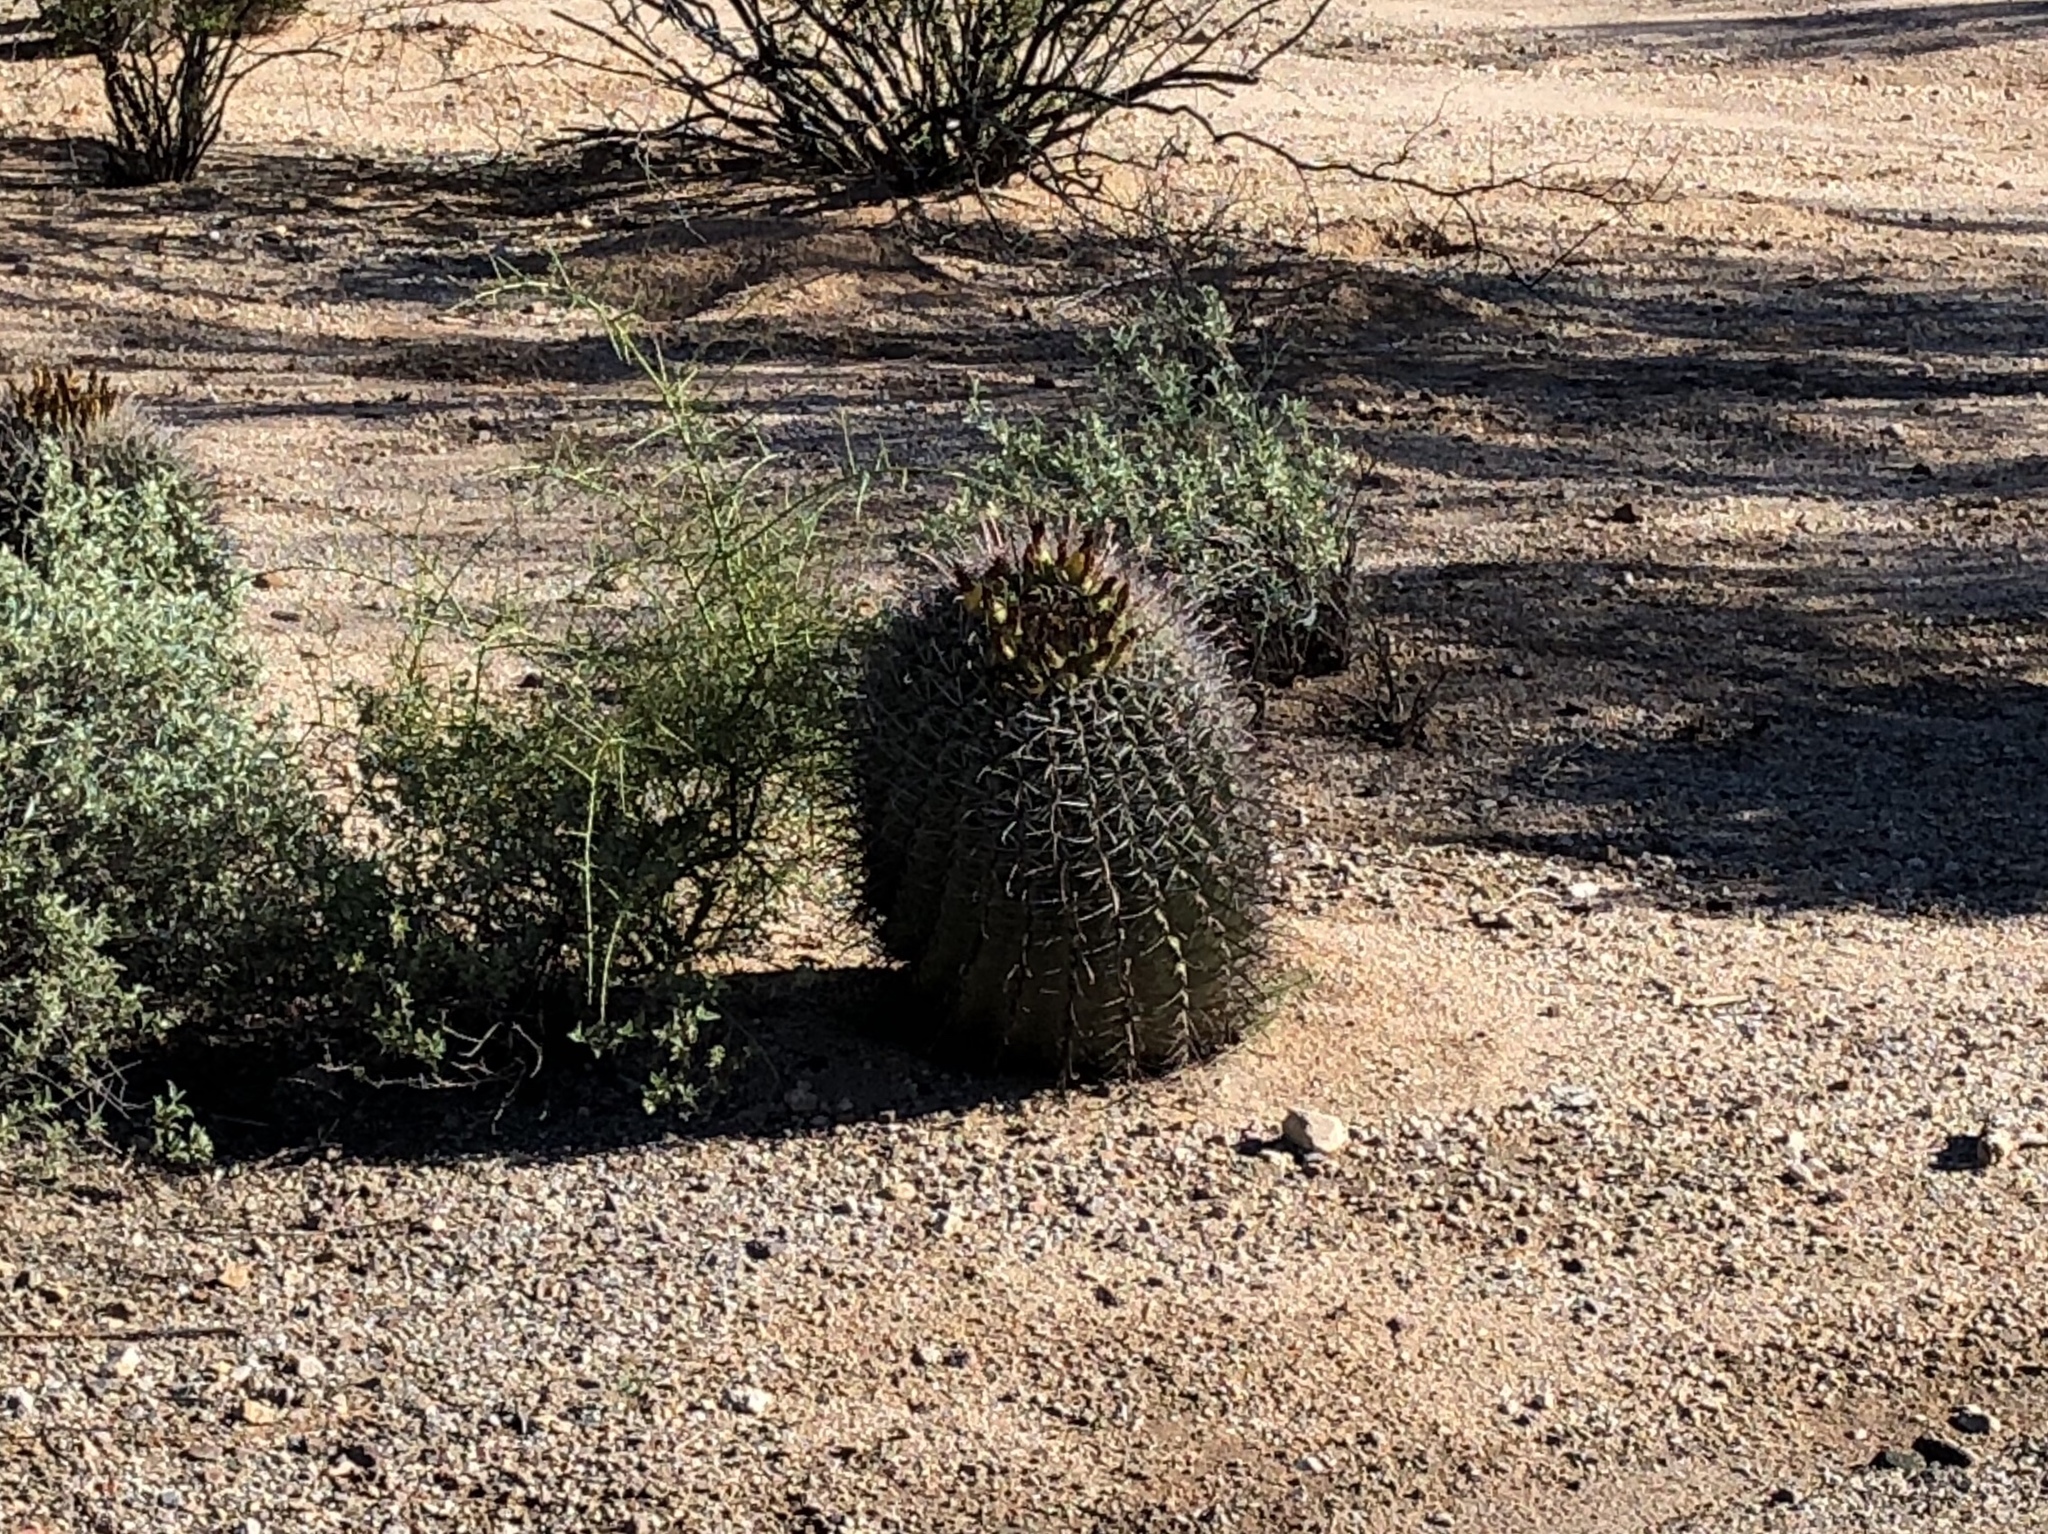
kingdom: Plantae
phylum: Tracheophyta
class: Magnoliopsida
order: Caryophyllales
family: Cactaceae
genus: Ferocactus
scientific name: Ferocactus wislizeni
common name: Candy barrel cactus
